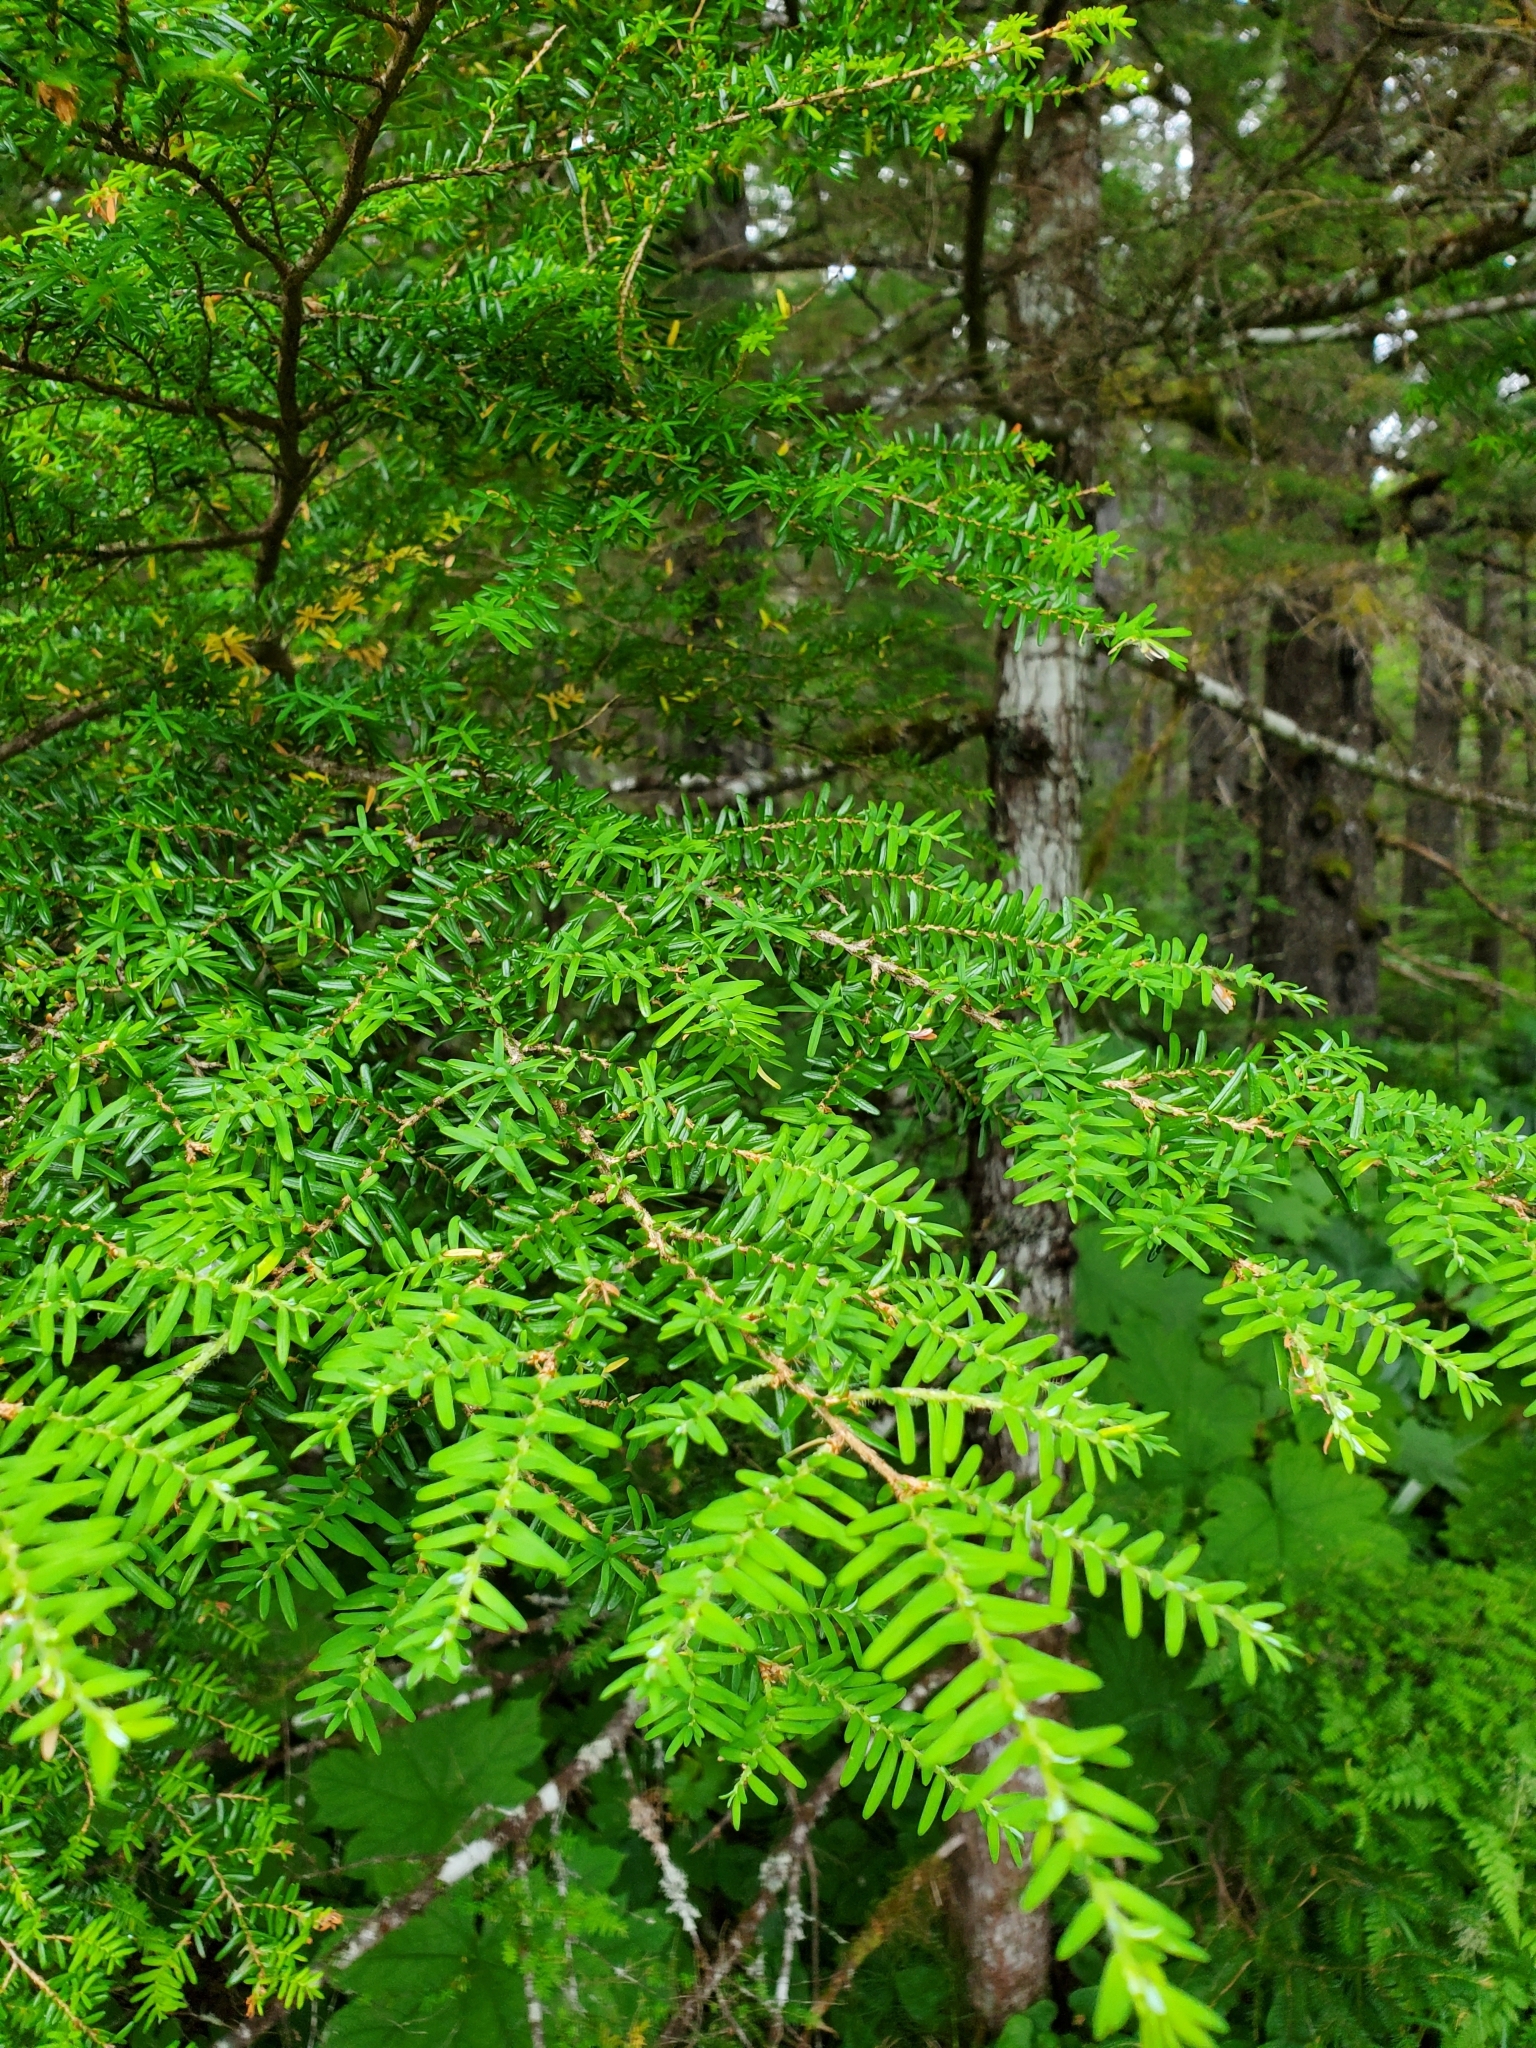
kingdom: Plantae
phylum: Tracheophyta
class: Pinopsida
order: Pinales
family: Pinaceae
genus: Tsuga
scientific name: Tsuga heterophylla
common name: Western hemlock
